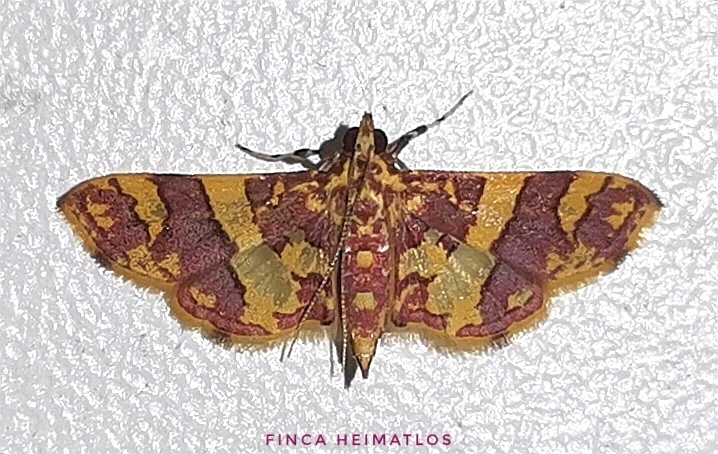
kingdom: Animalia
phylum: Arthropoda
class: Insecta
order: Lepidoptera
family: Crambidae
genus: Trithyris
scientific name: Trithyris Prenesta rubrocinctalis
